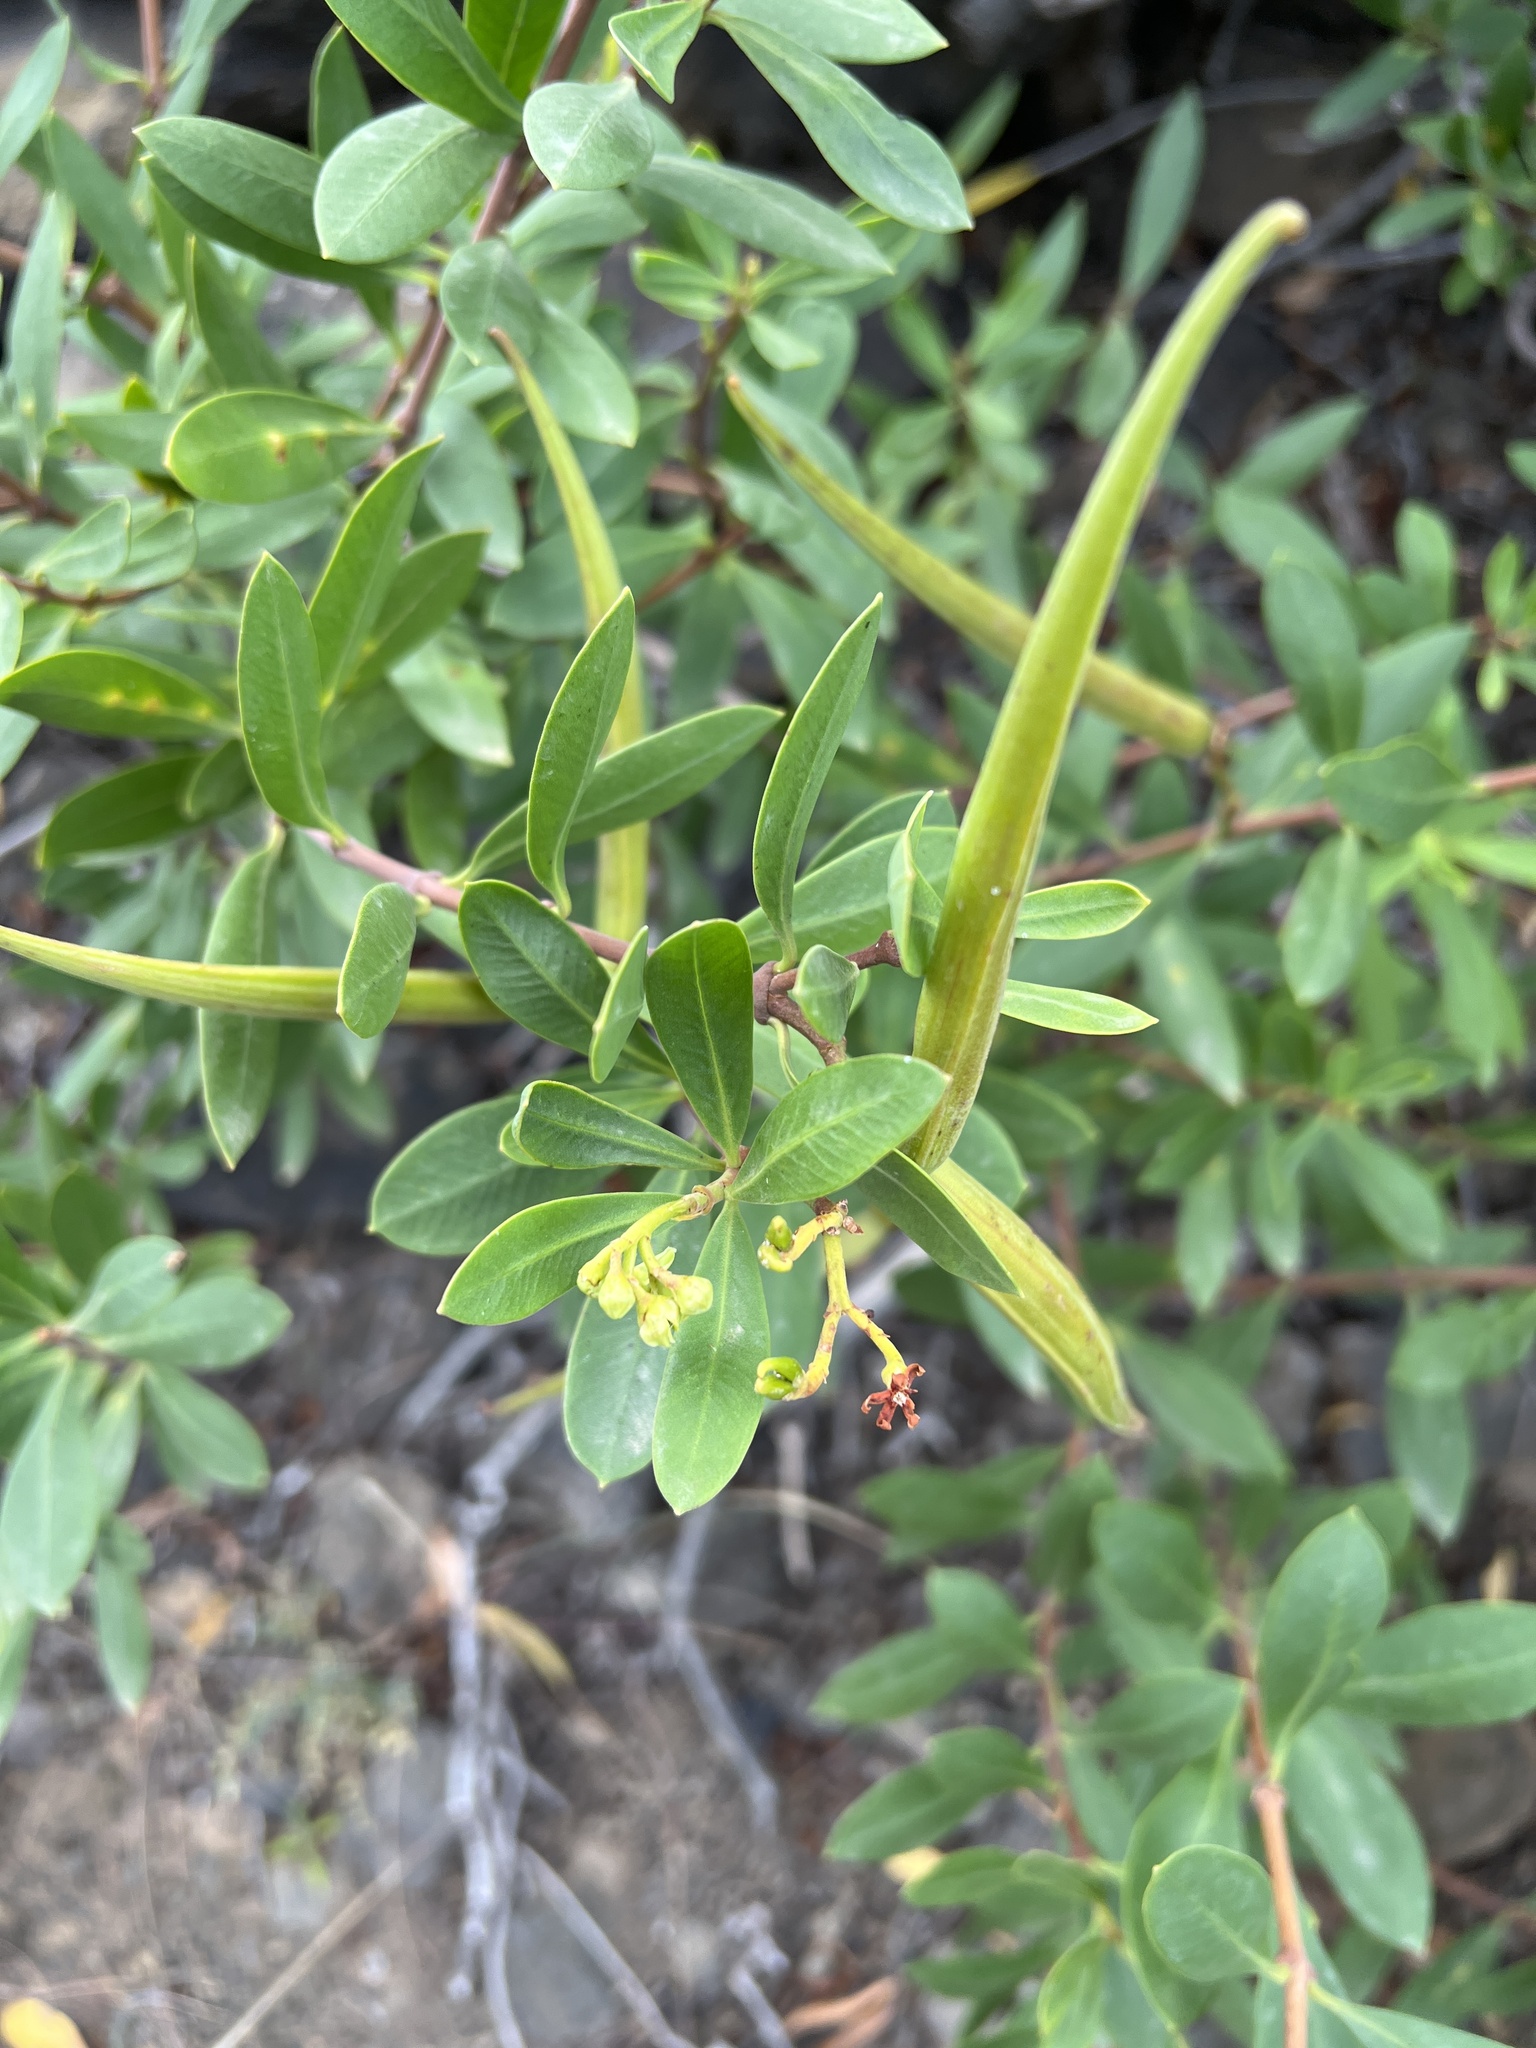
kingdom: Plantae
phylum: Tracheophyta
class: Magnoliopsida
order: Gentianales
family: Apocynaceae
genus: Periploca
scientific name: Periploca laevigata
